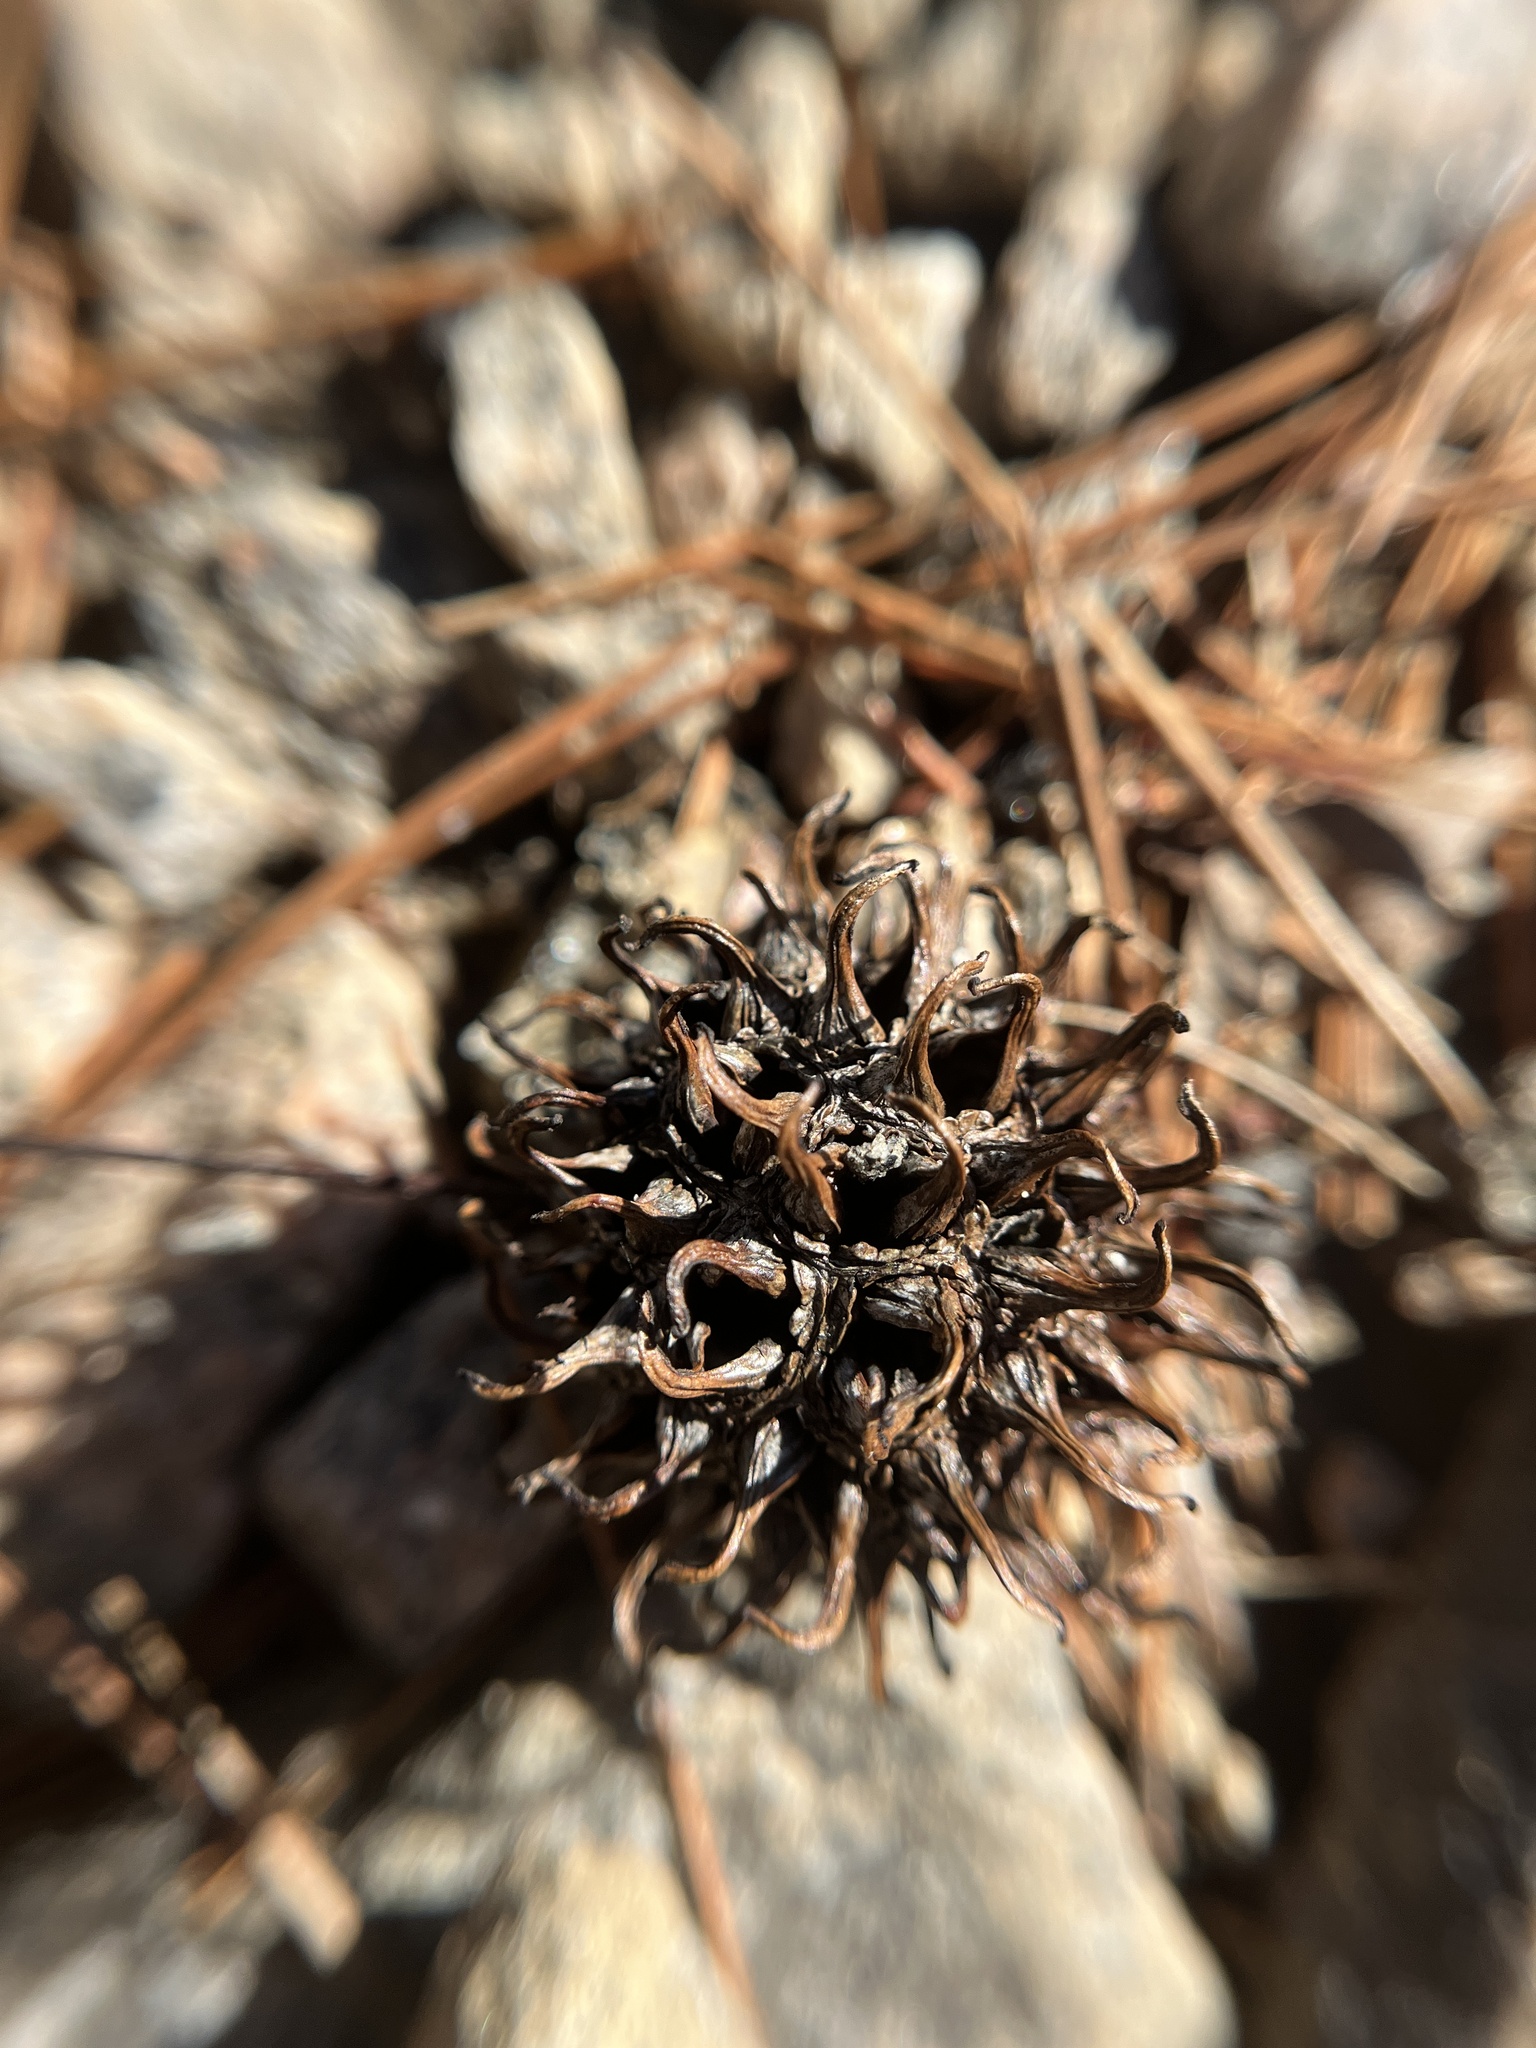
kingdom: Plantae
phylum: Tracheophyta
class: Magnoliopsida
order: Saxifragales
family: Altingiaceae
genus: Liquidambar
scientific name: Liquidambar styraciflua
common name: Sweet gum
